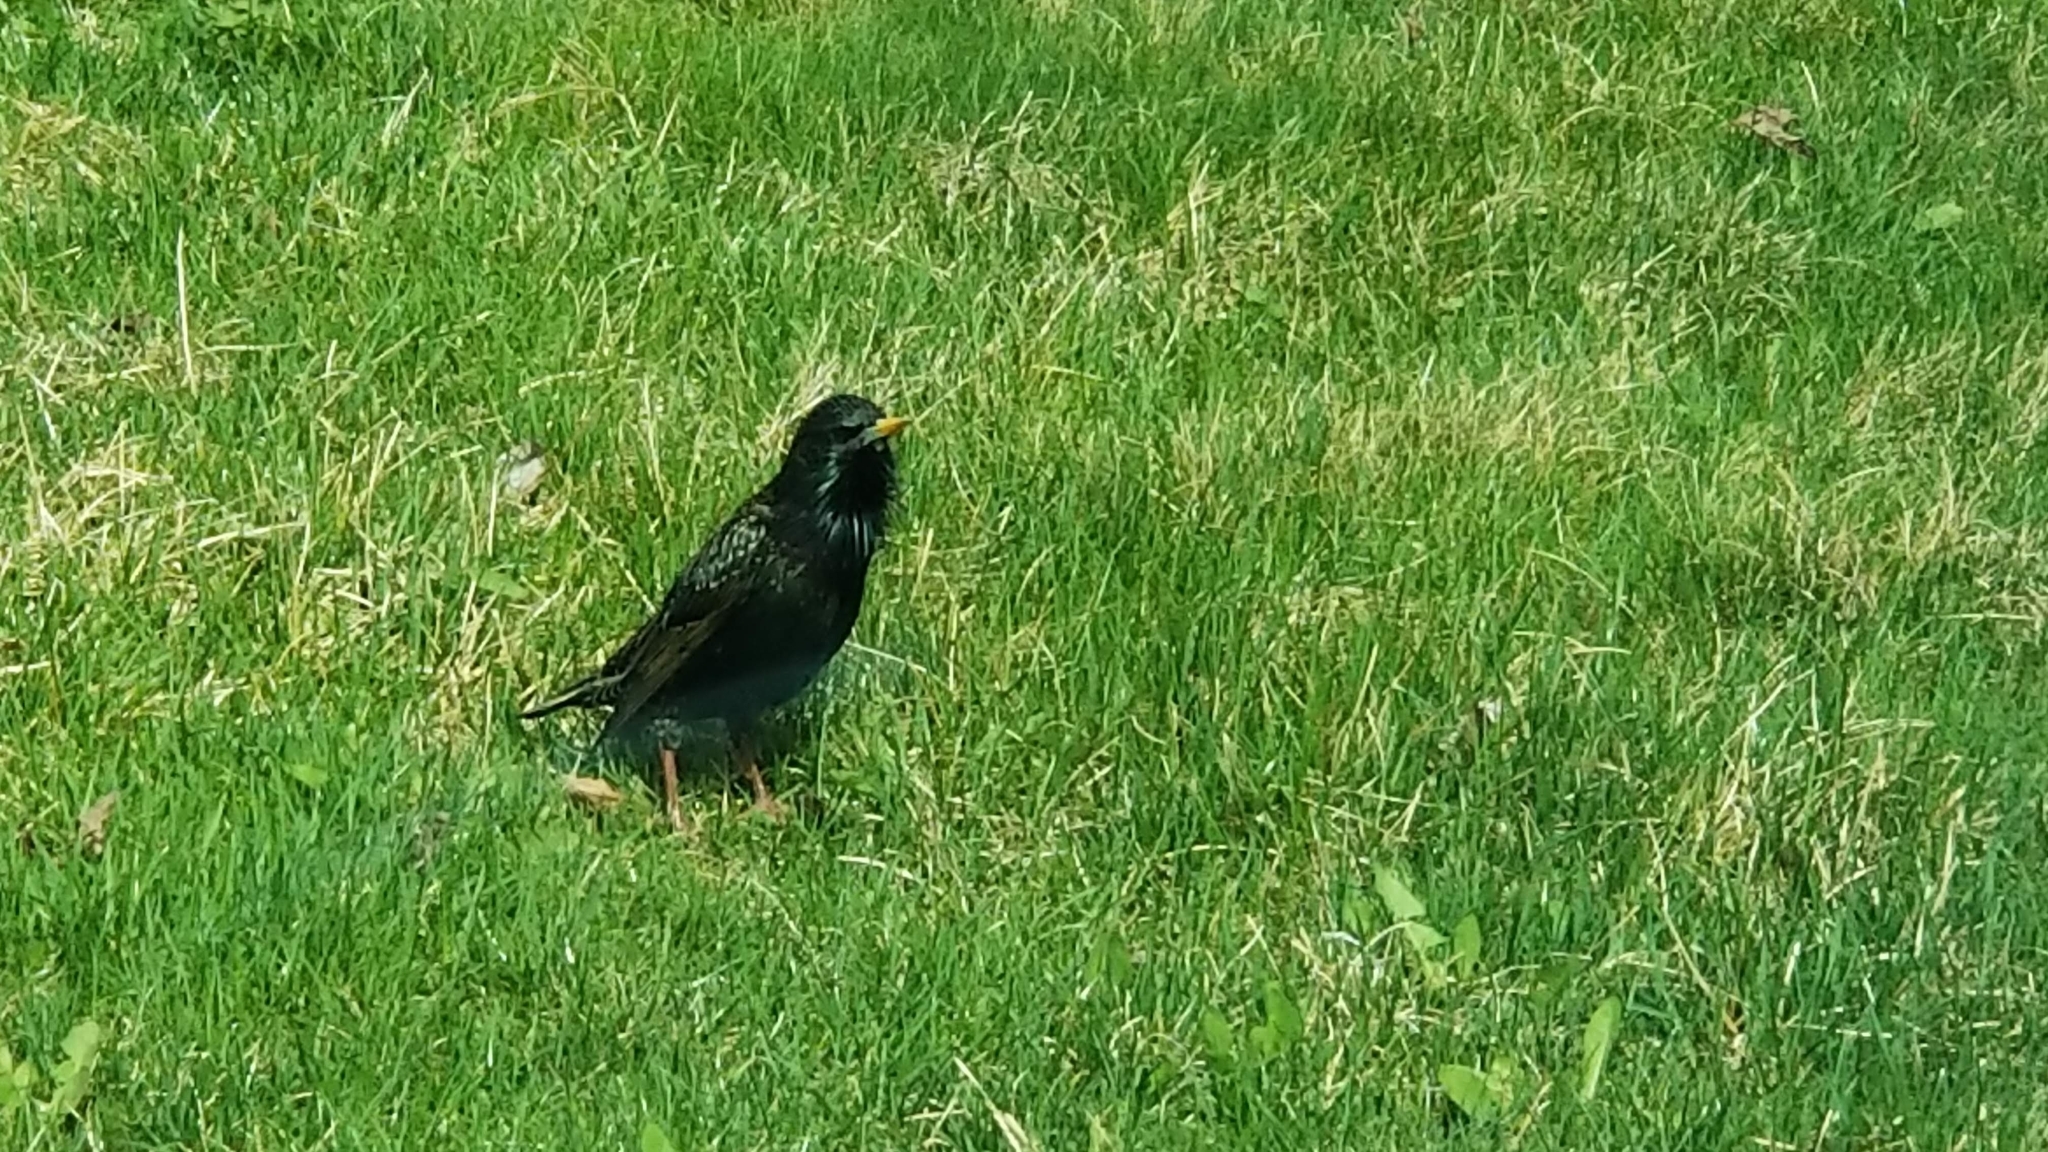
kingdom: Animalia
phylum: Chordata
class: Aves
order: Passeriformes
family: Sturnidae
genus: Sturnus
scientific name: Sturnus vulgaris
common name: Common starling
